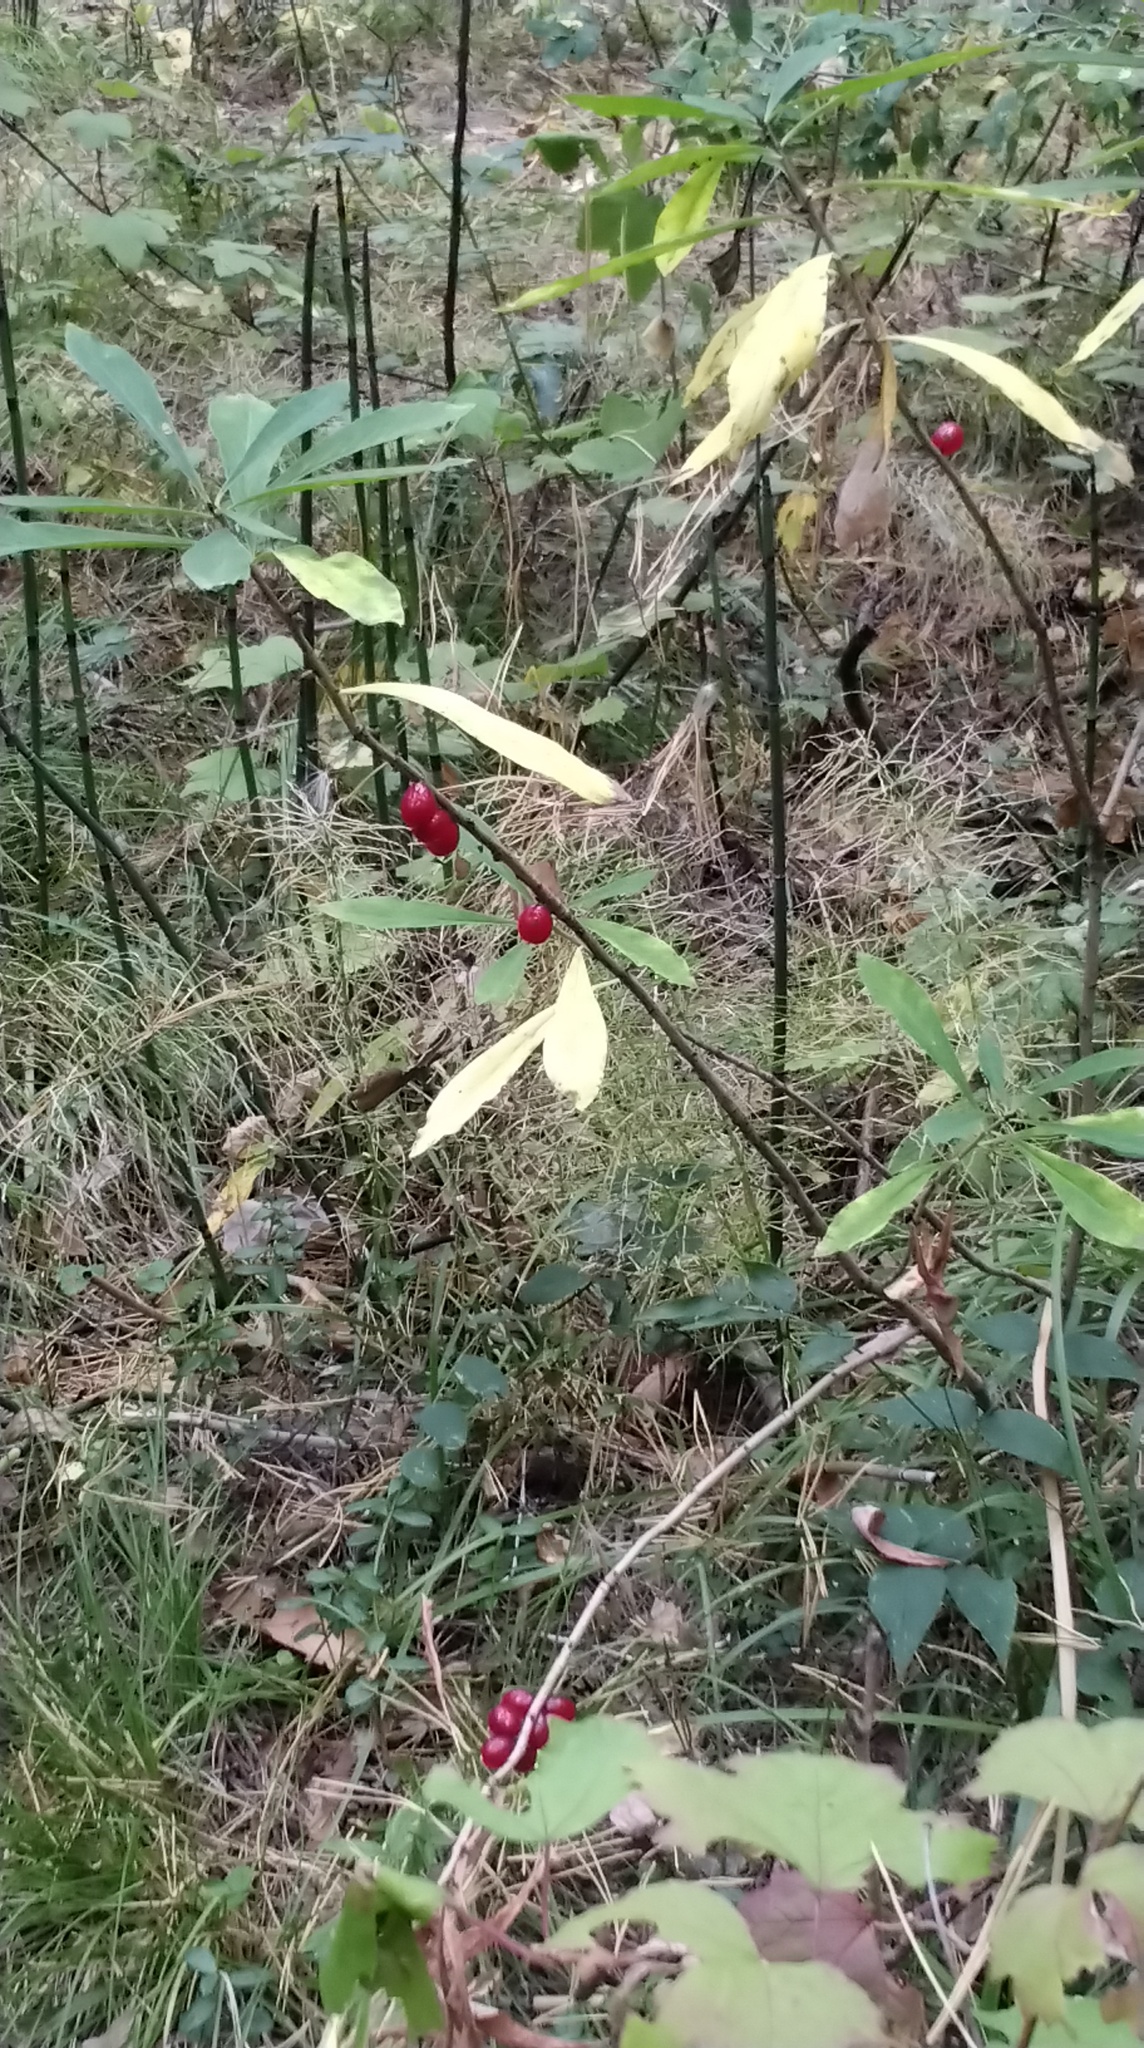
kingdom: Plantae
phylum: Tracheophyta
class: Magnoliopsida
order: Malvales
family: Thymelaeaceae
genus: Daphne
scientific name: Daphne mezereum
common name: Mezereon
